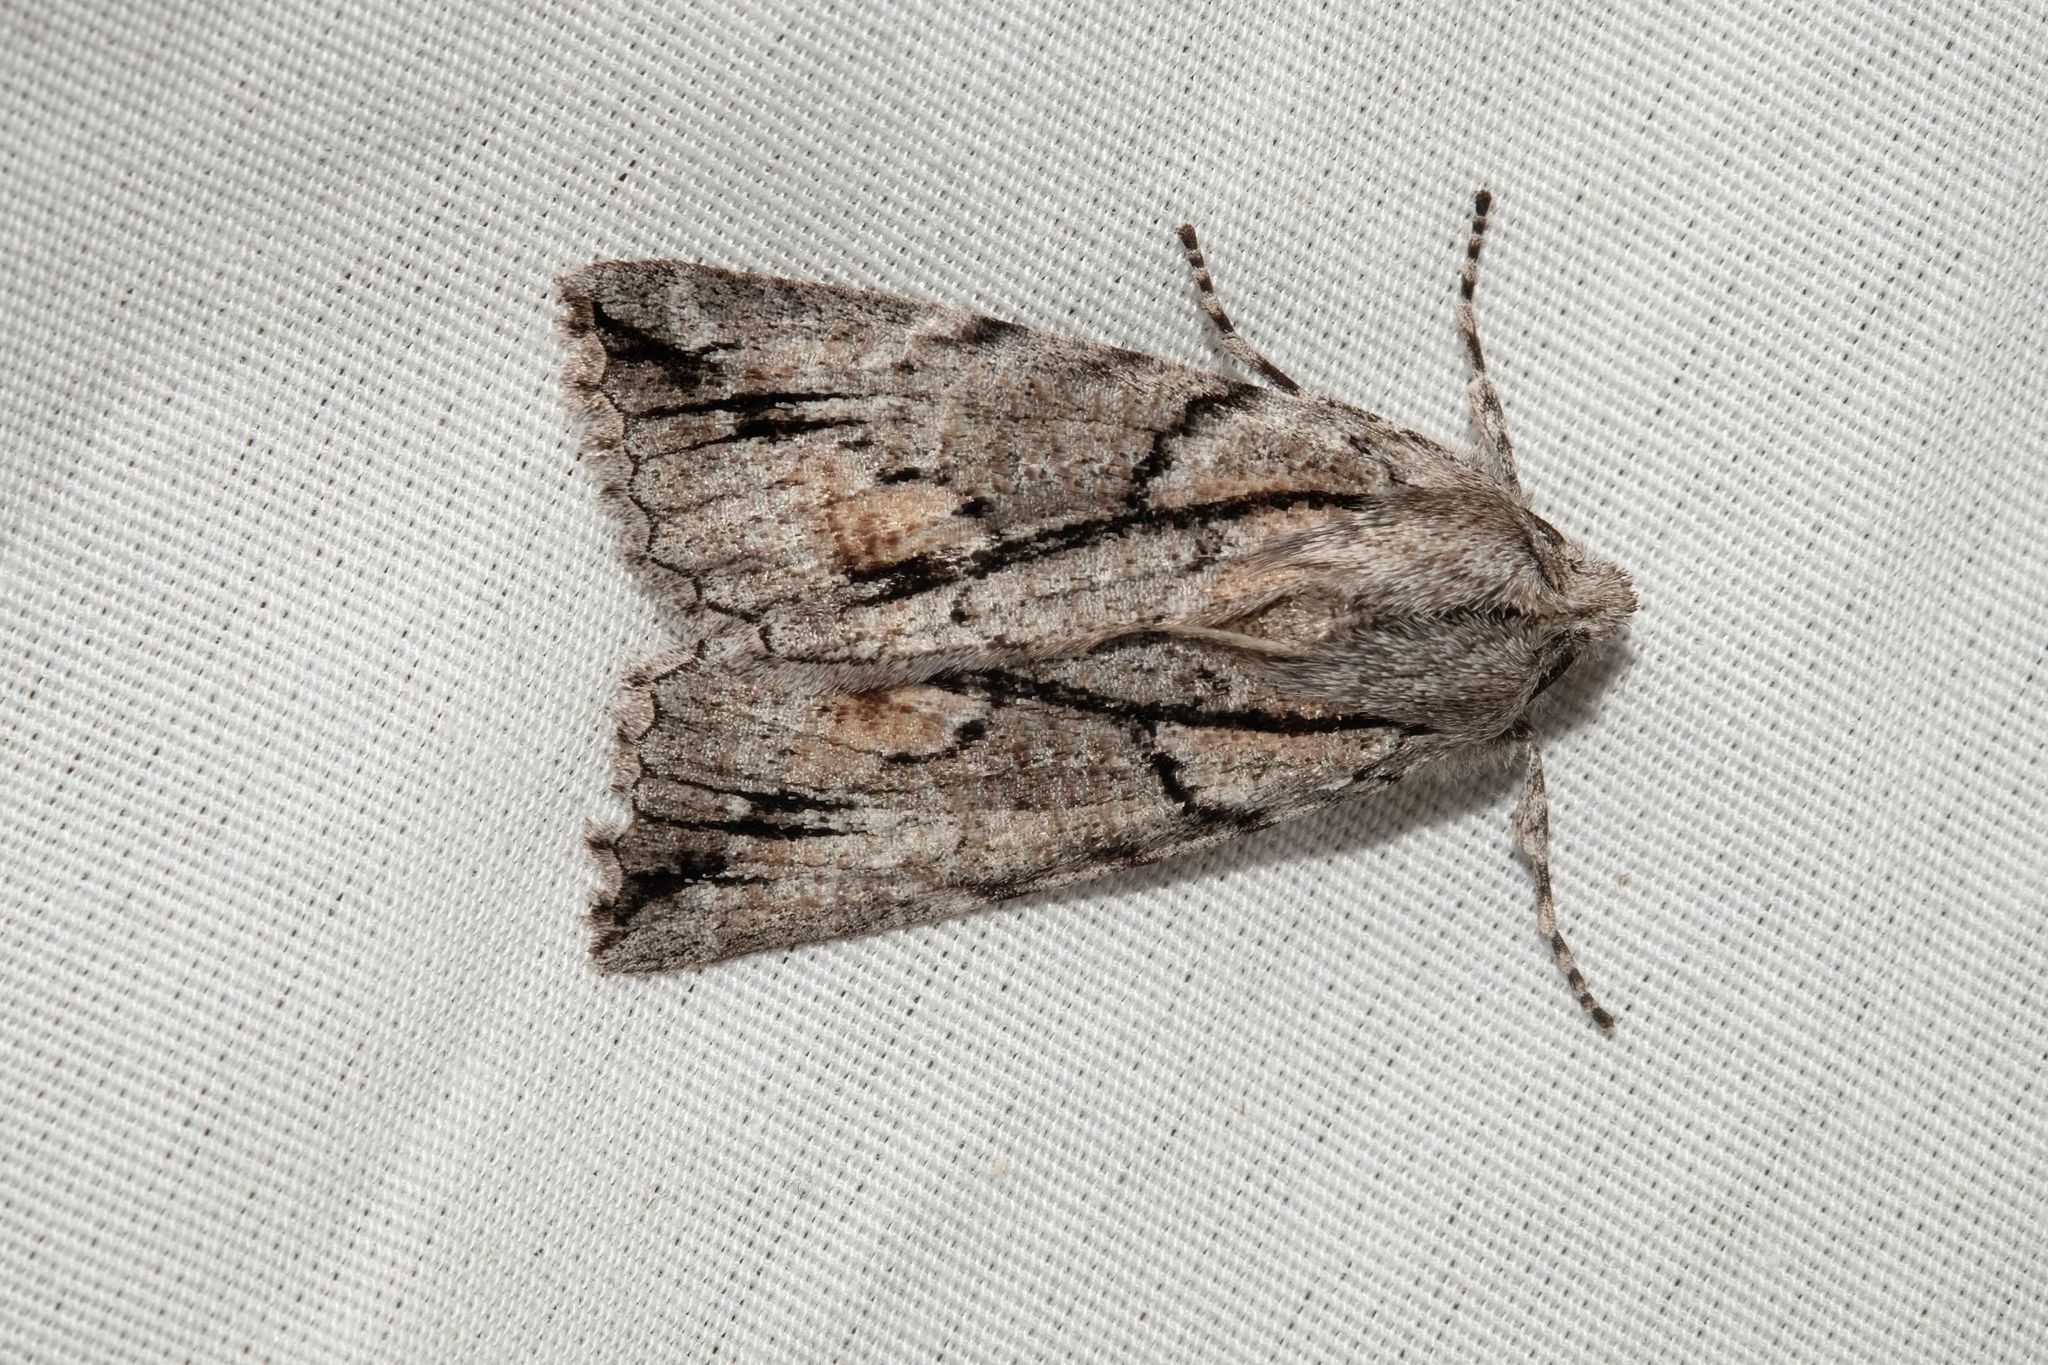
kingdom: Animalia
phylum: Arthropoda
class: Insecta
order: Lepidoptera
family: Geometridae
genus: Nisista
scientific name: Nisista galearia
